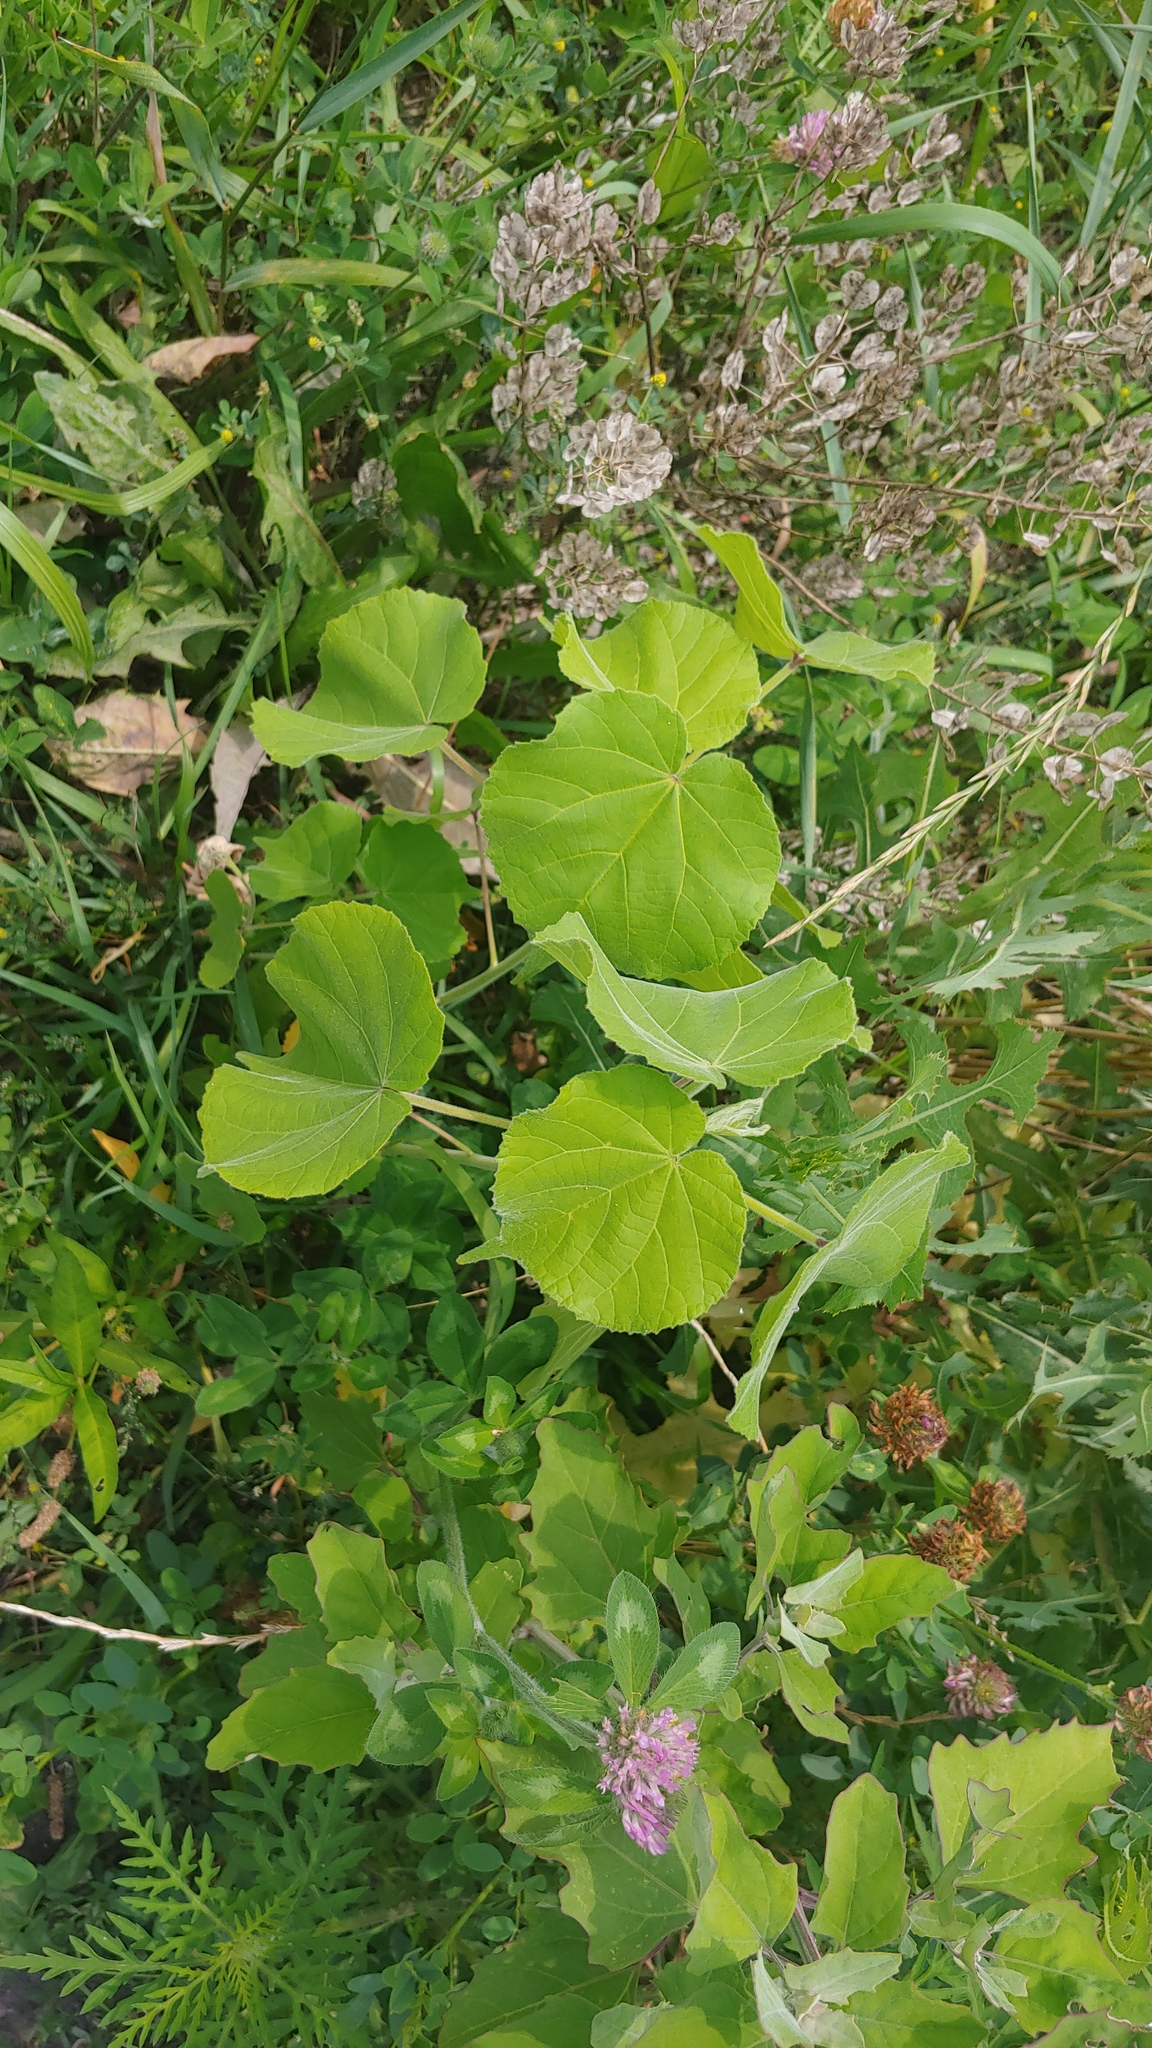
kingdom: Plantae
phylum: Tracheophyta
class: Magnoliopsida
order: Malvales
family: Malvaceae
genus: Abutilon
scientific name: Abutilon theophrasti
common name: Velvetleaf
